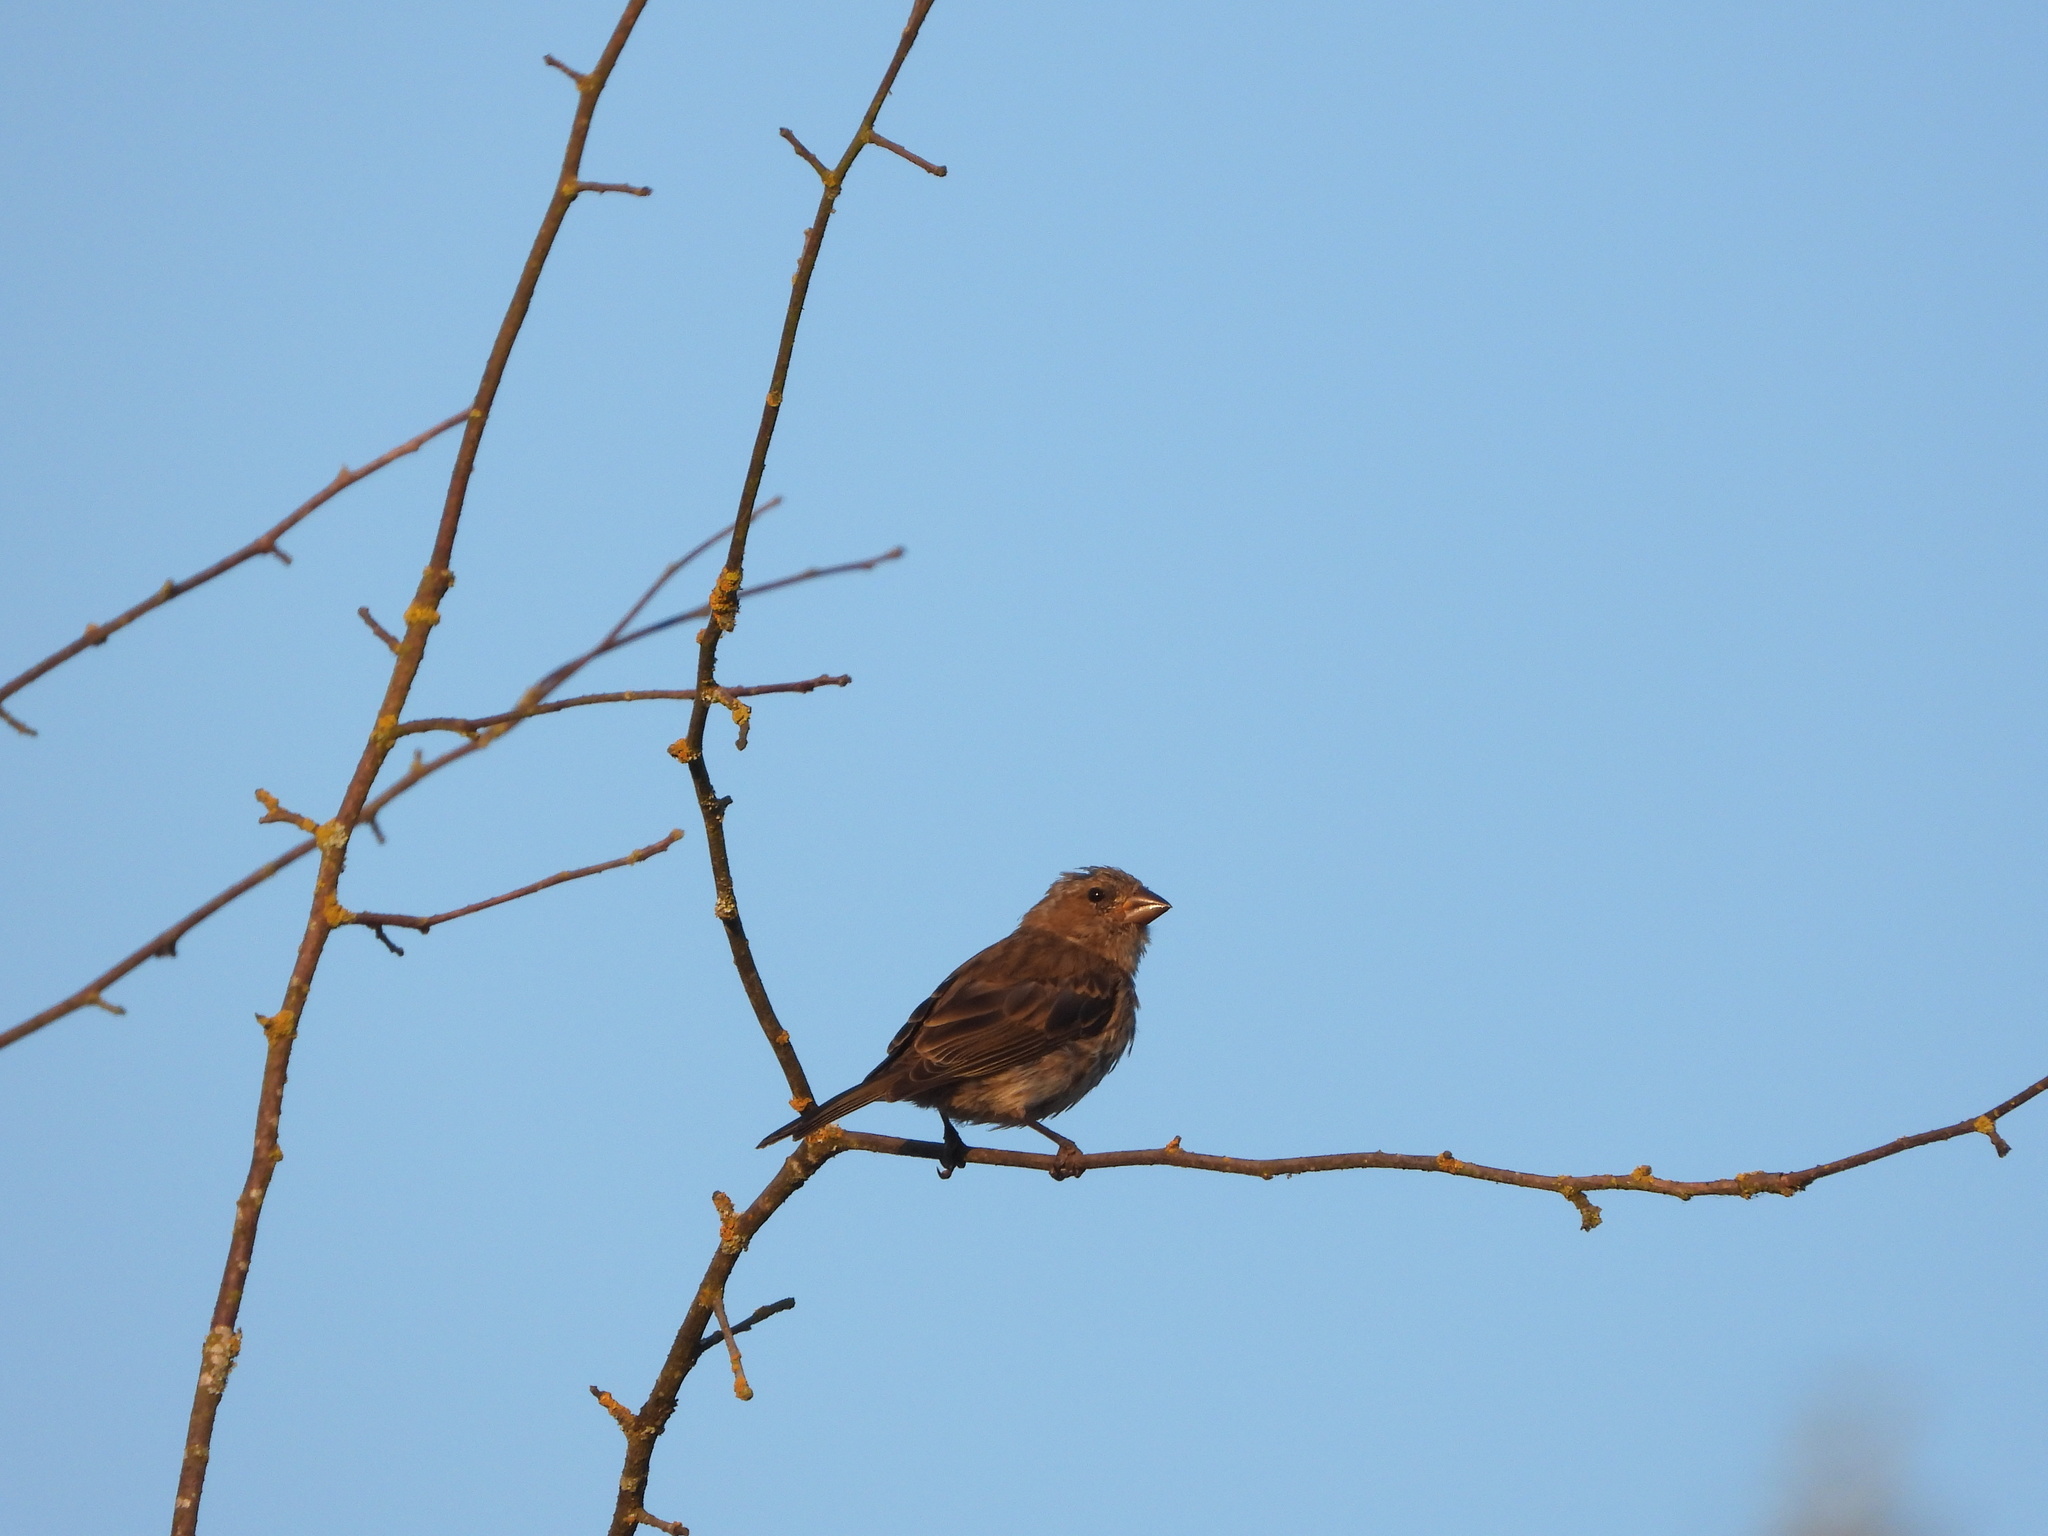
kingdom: Animalia
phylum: Chordata
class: Aves
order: Passeriformes
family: Fringillidae
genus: Haemorhous
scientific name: Haemorhous purpureus
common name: Purple finch
